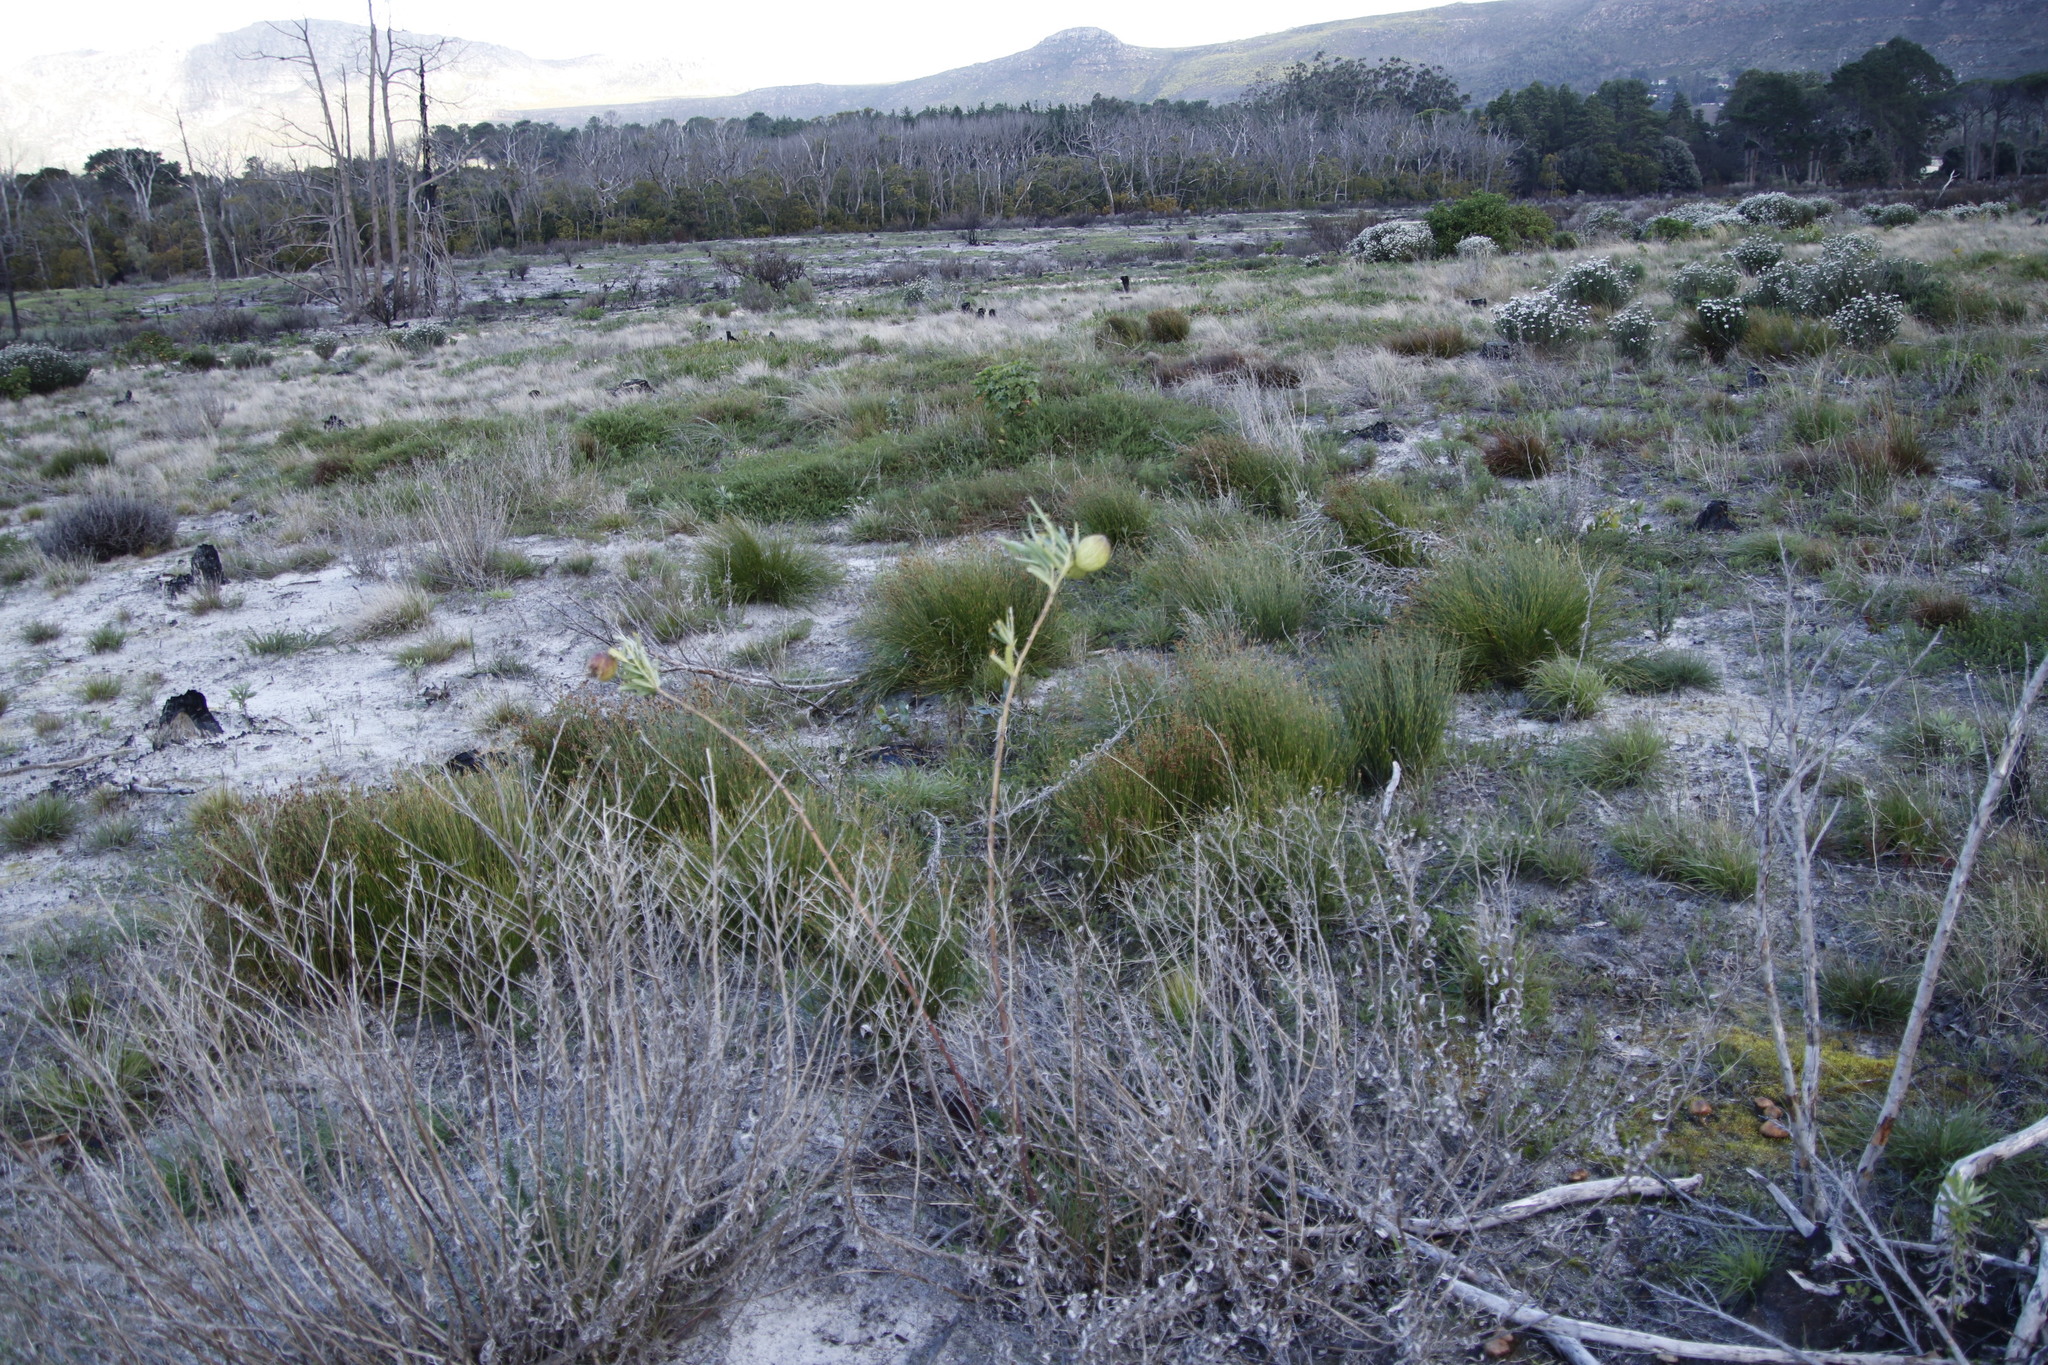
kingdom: Plantae
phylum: Tracheophyta
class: Magnoliopsida
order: Gentianales
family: Apocynaceae
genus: Gomphocarpus
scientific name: Gomphocarpus physocarpus
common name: Balloon cotton bush
